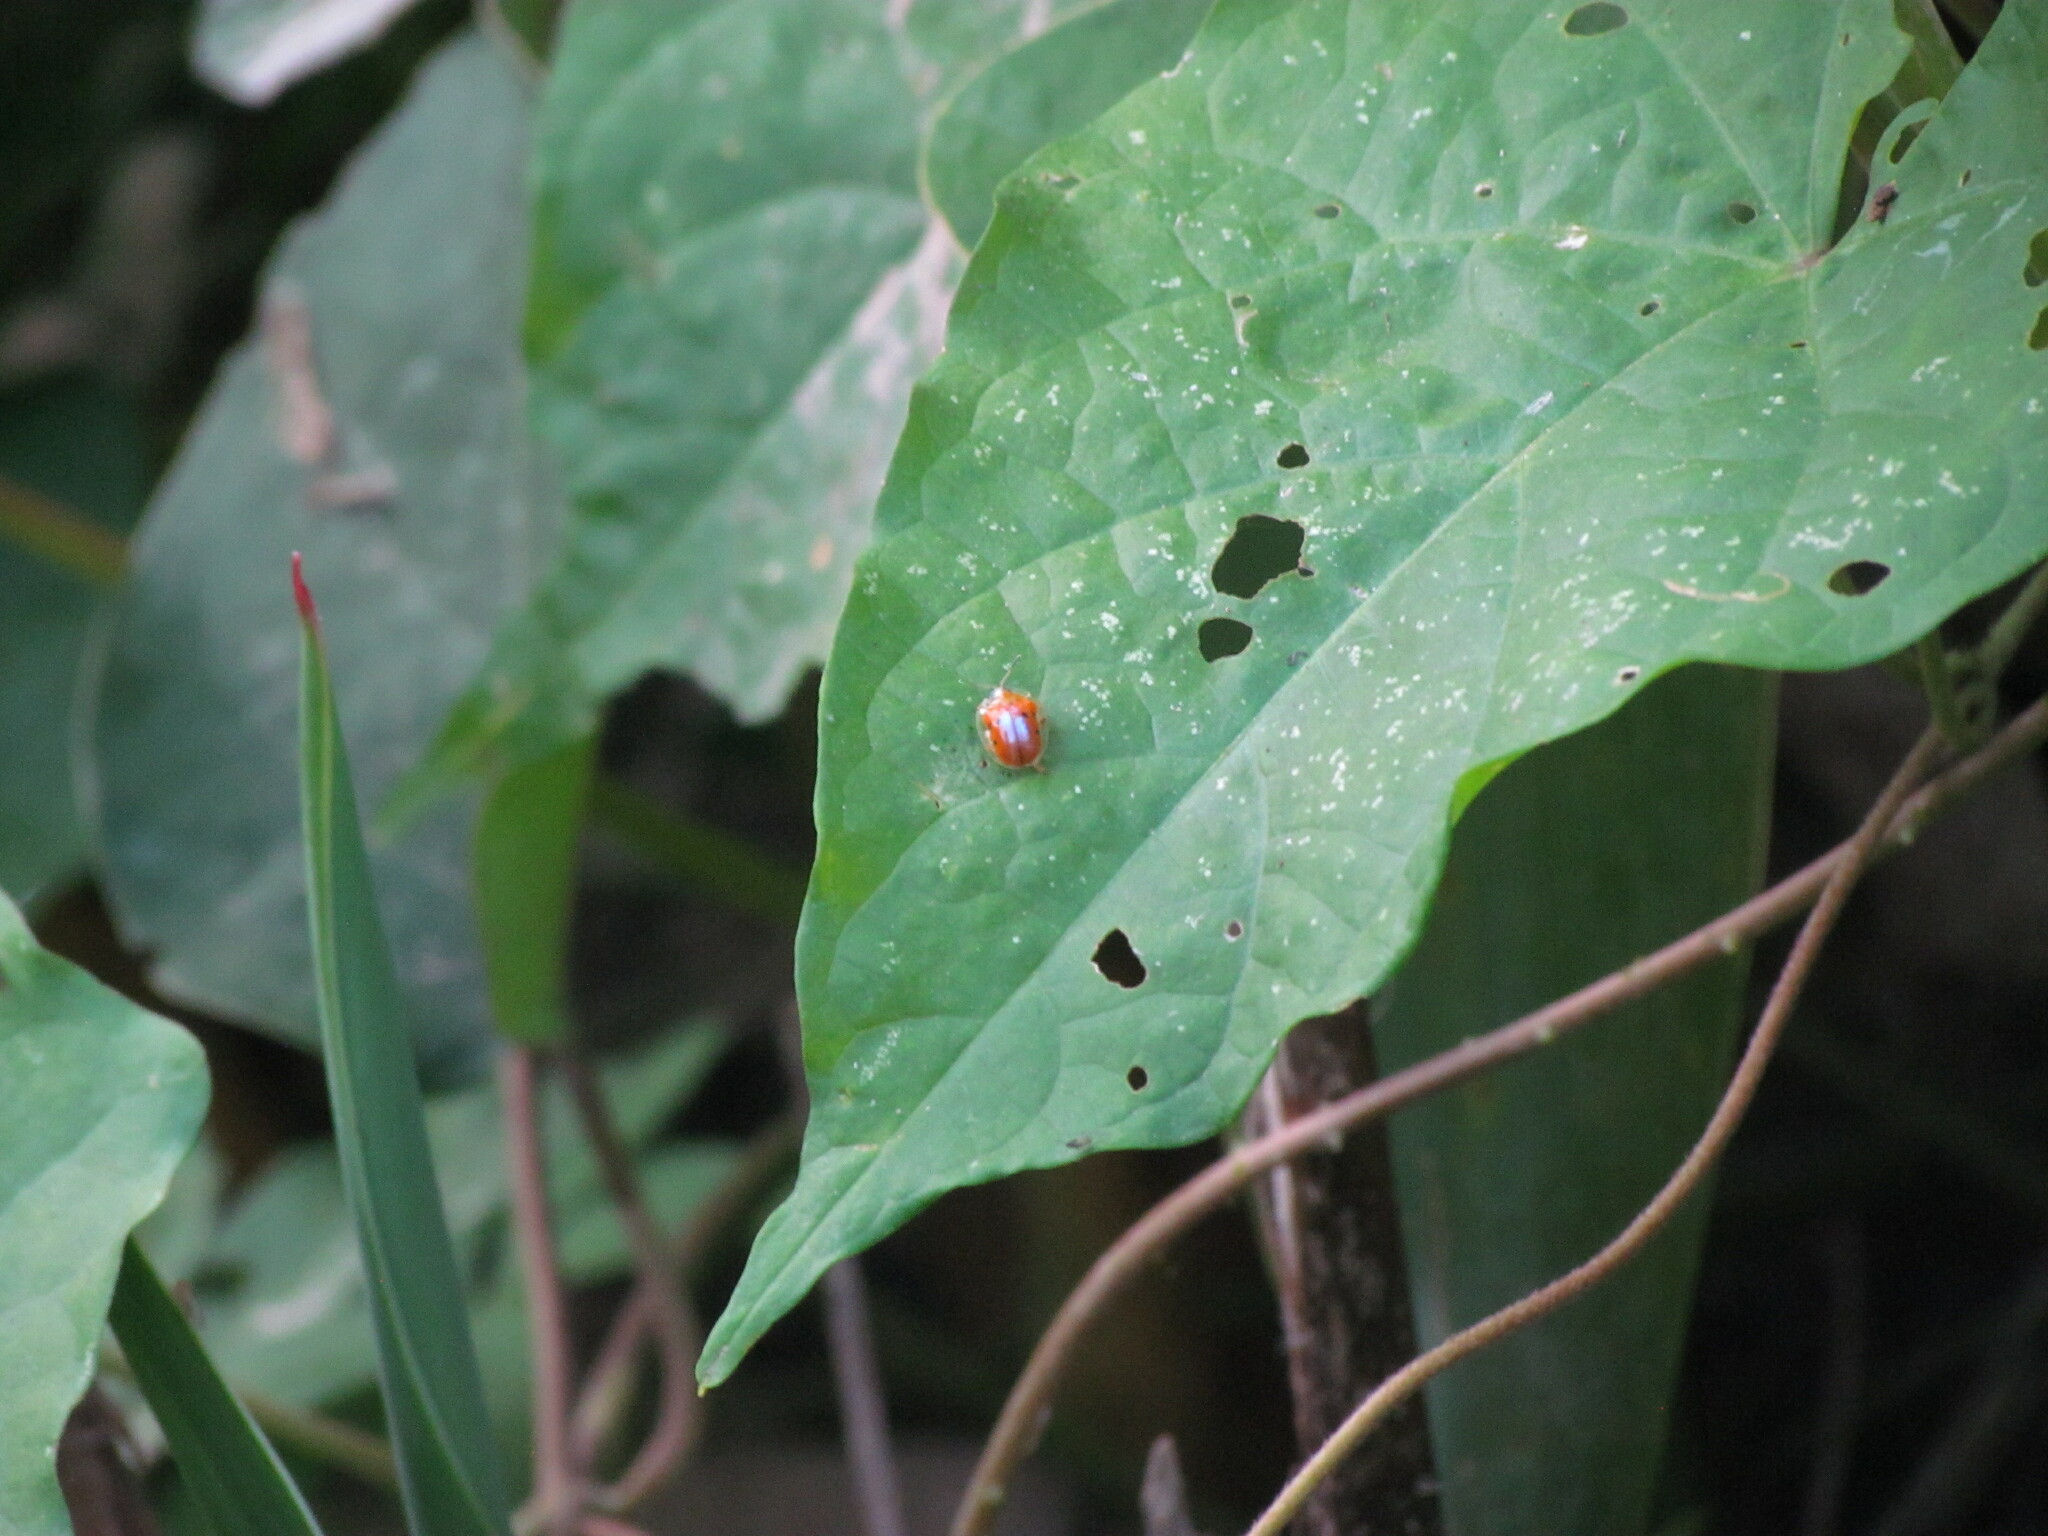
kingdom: Animalia
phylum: Arthropoda
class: Insecta
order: Coleoptera
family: Chrysomelidae
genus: Charidotella
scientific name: Charidotella sexpunctata
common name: Golden tortoise beetle
